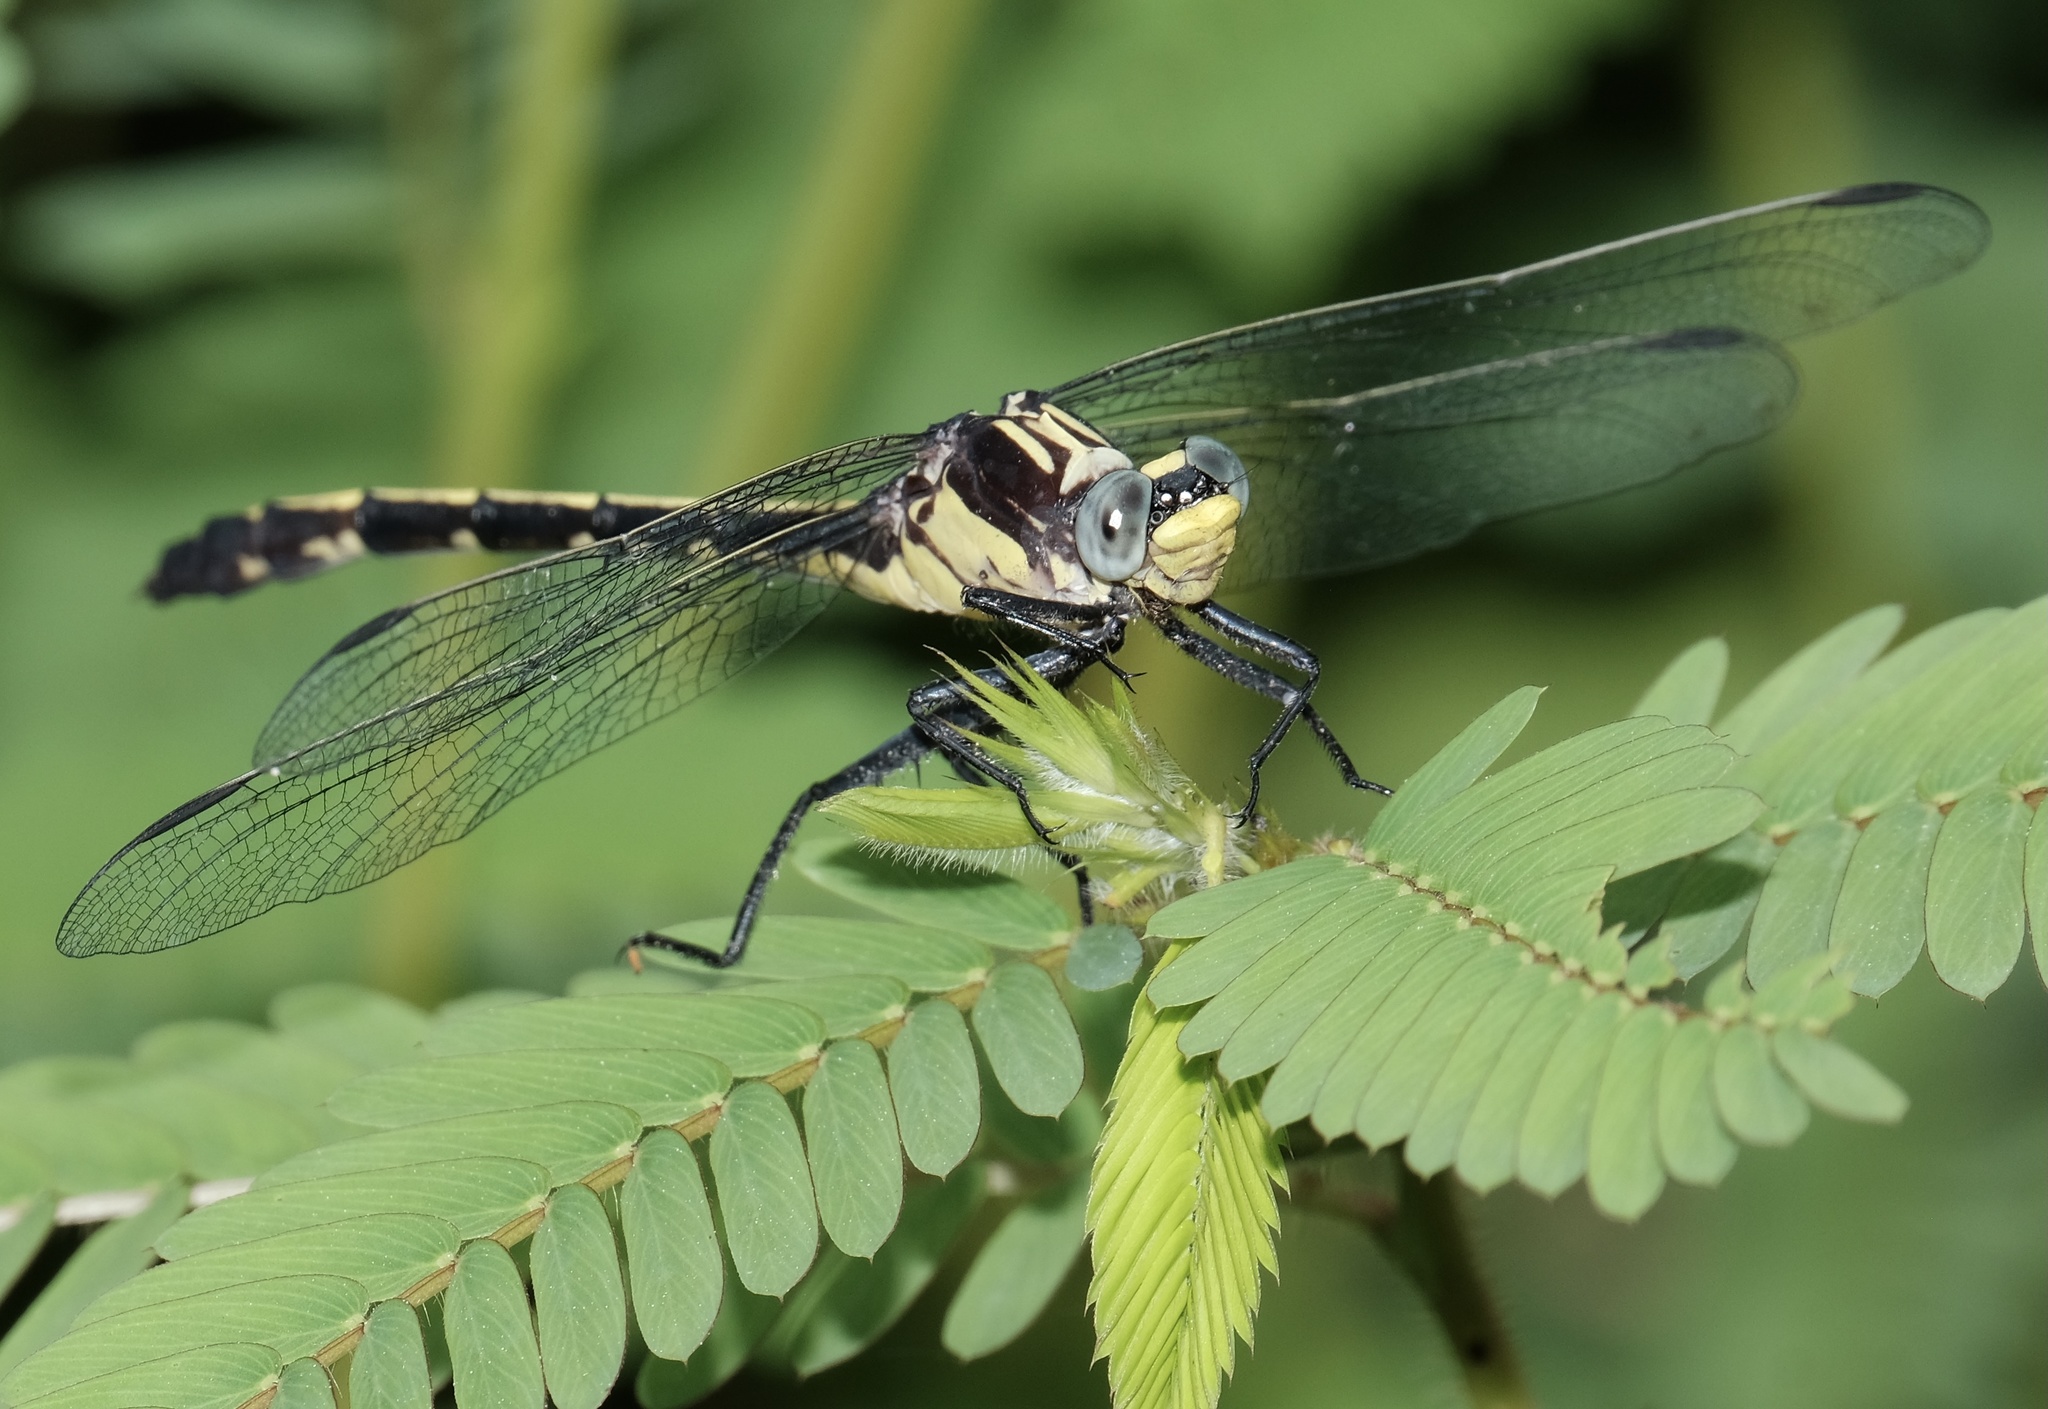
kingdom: Animalia
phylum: Arthropoda
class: Insecta
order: Odonata
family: Gomphidae
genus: Dromogomphus
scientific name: Dromogomphus spinosus
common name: Black-shouldered spinyleg
